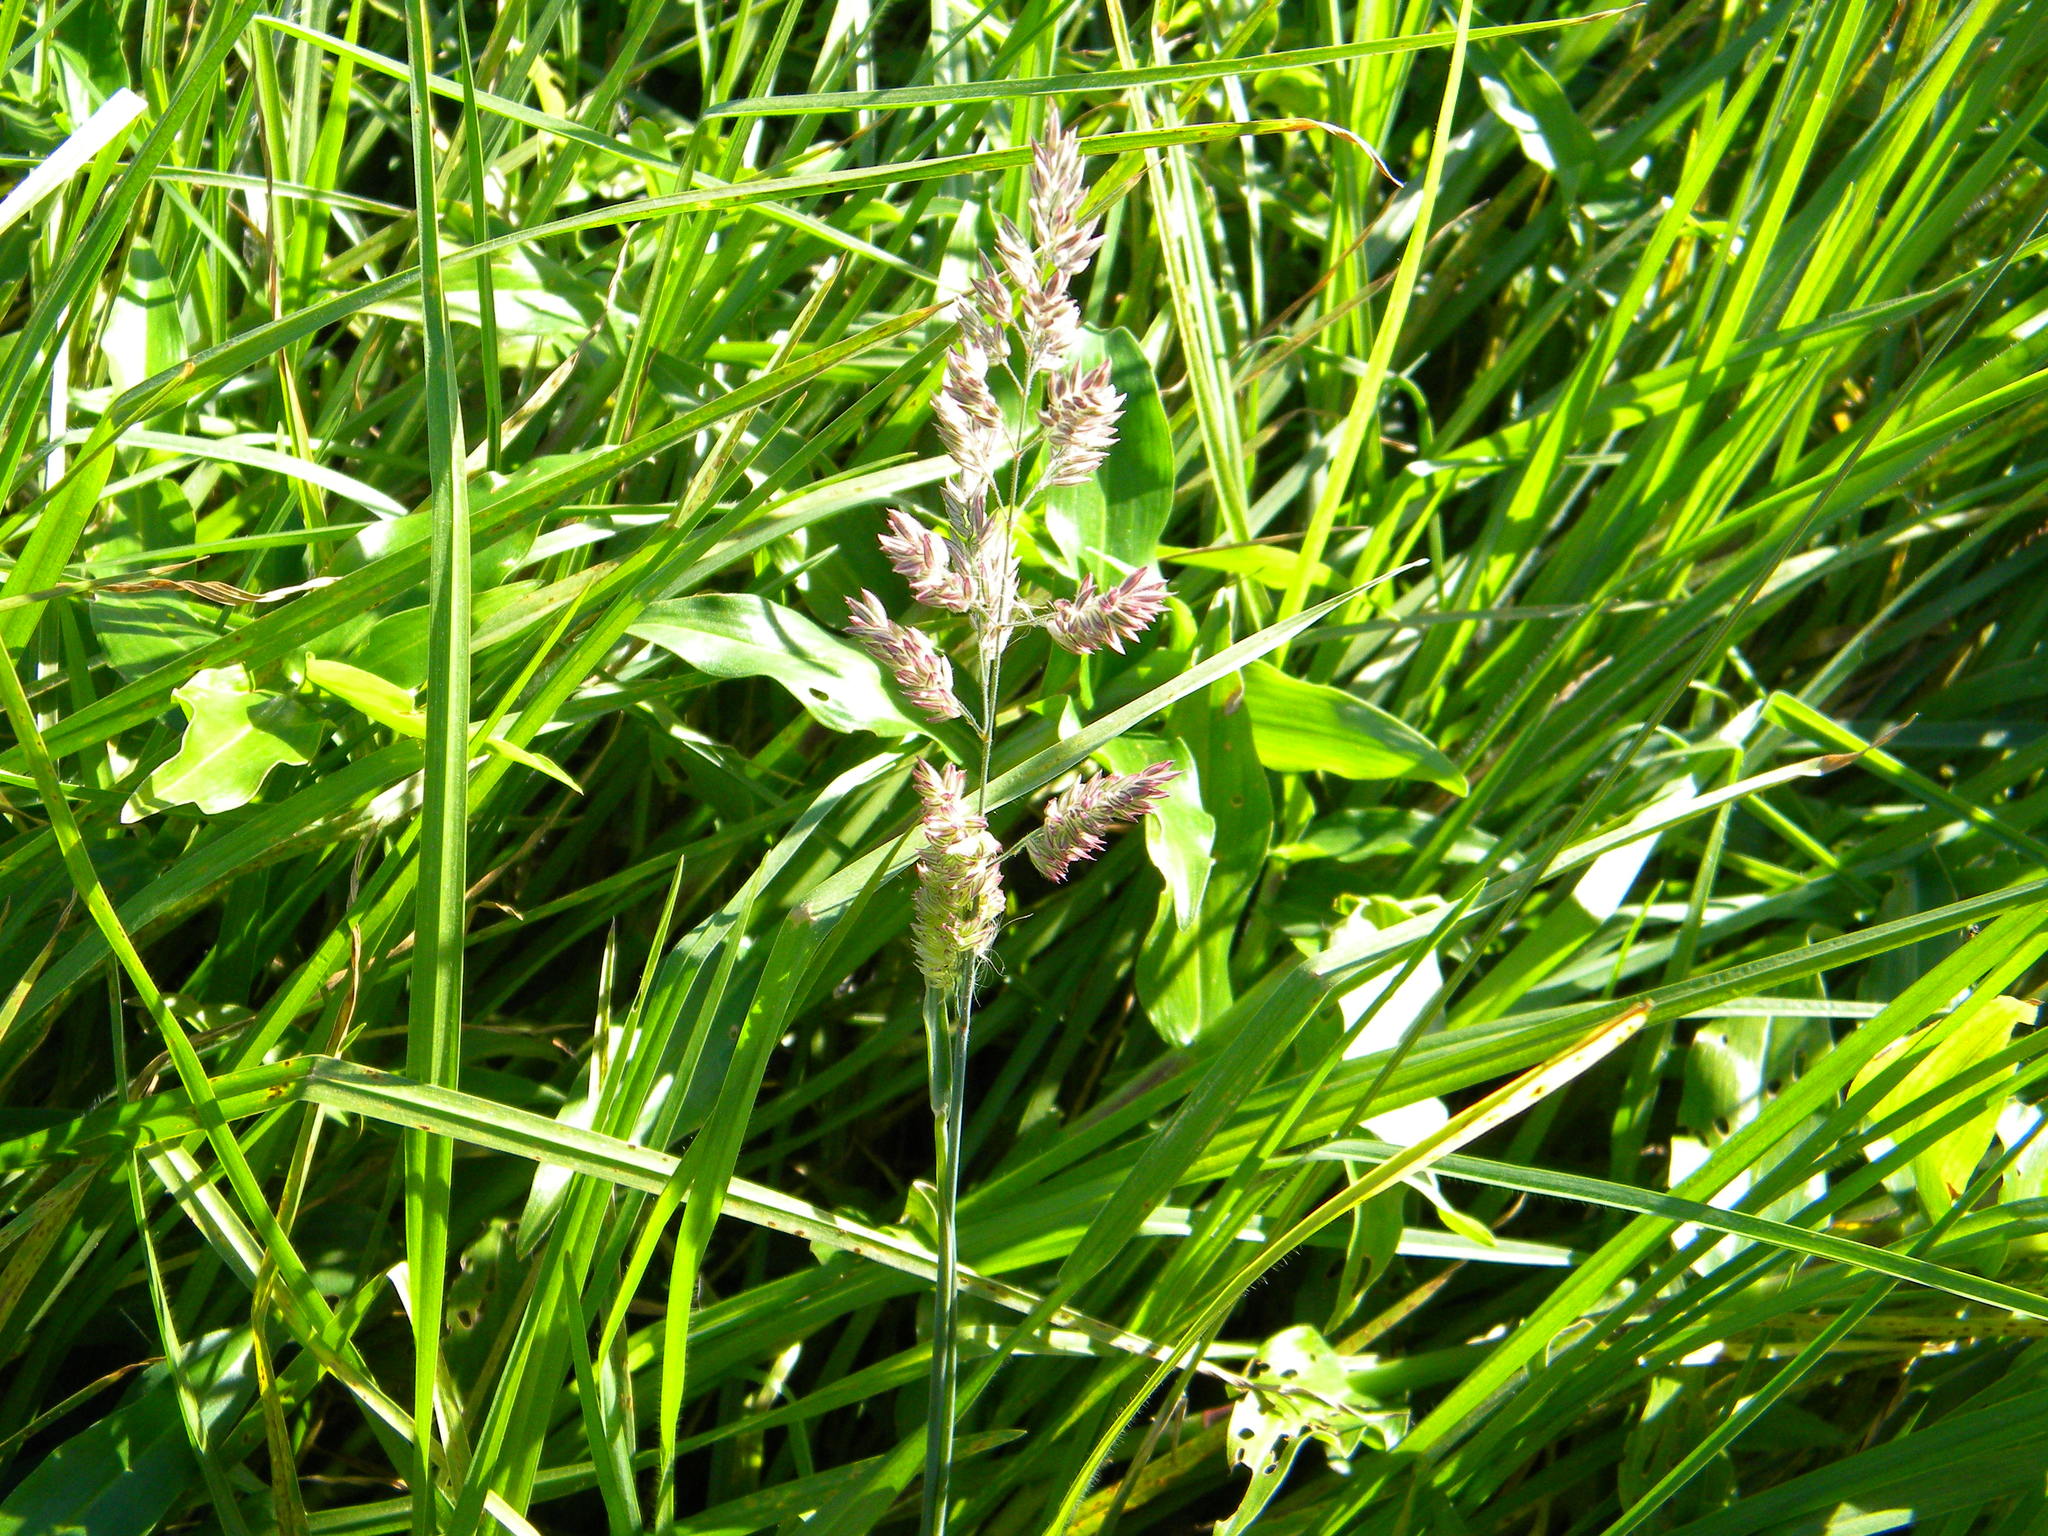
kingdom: Plantae
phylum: Tracheophyta
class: Liliopsida
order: Poales
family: Poaceae
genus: Holcus
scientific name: Holcus lanatus
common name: Yorkshire-fog
